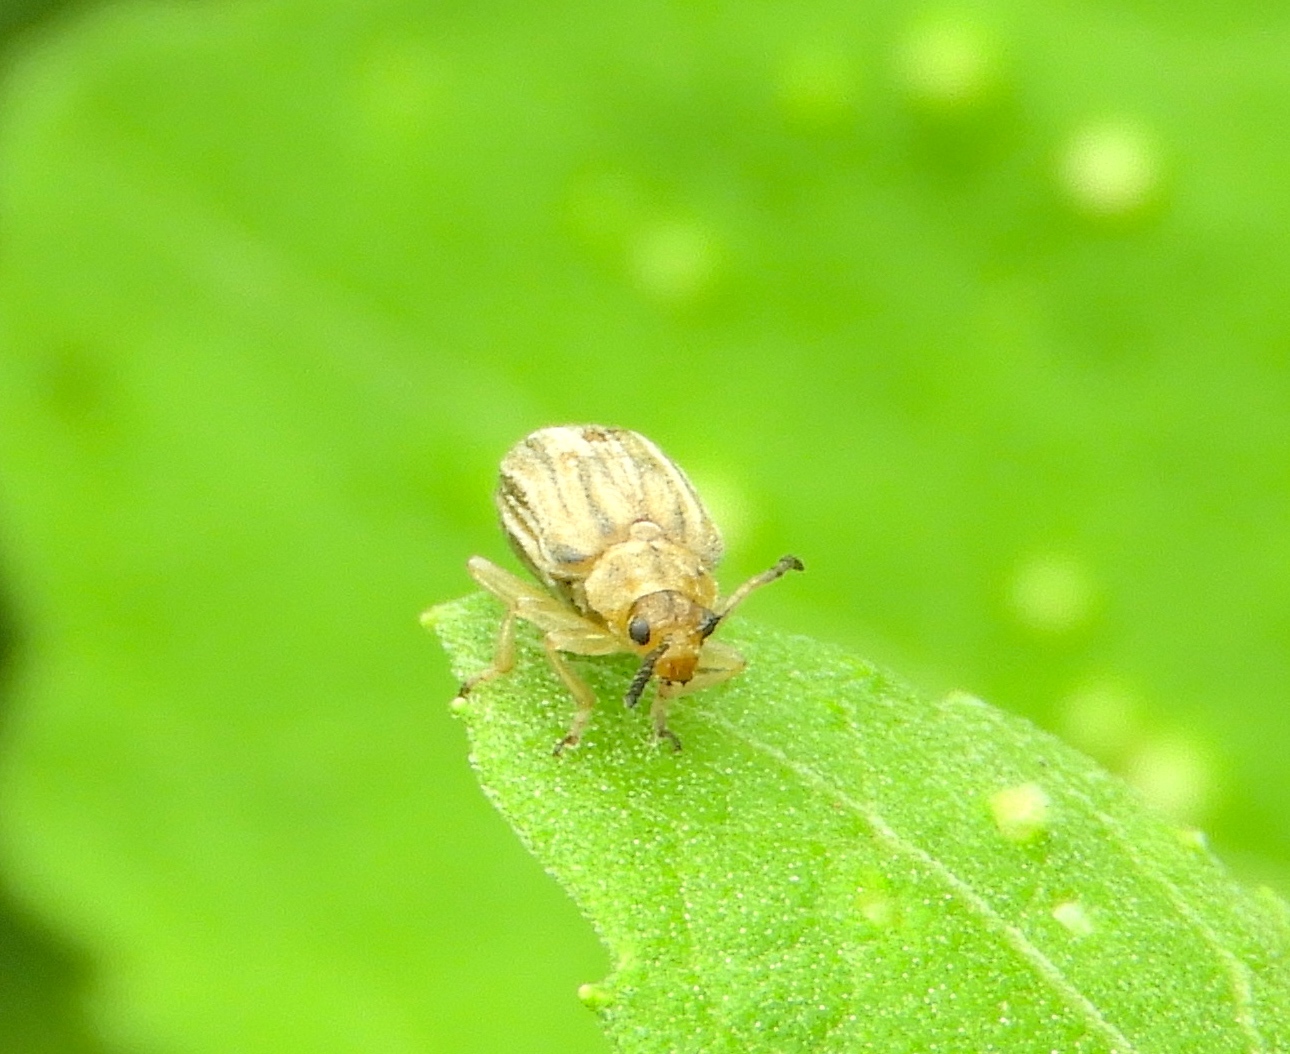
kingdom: Animalia
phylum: Arthropoda
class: Insecta
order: Coleoptera
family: Chrysomelidae
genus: Ophraella
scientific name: Ophraella communa
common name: Ragweed leaf beetle
